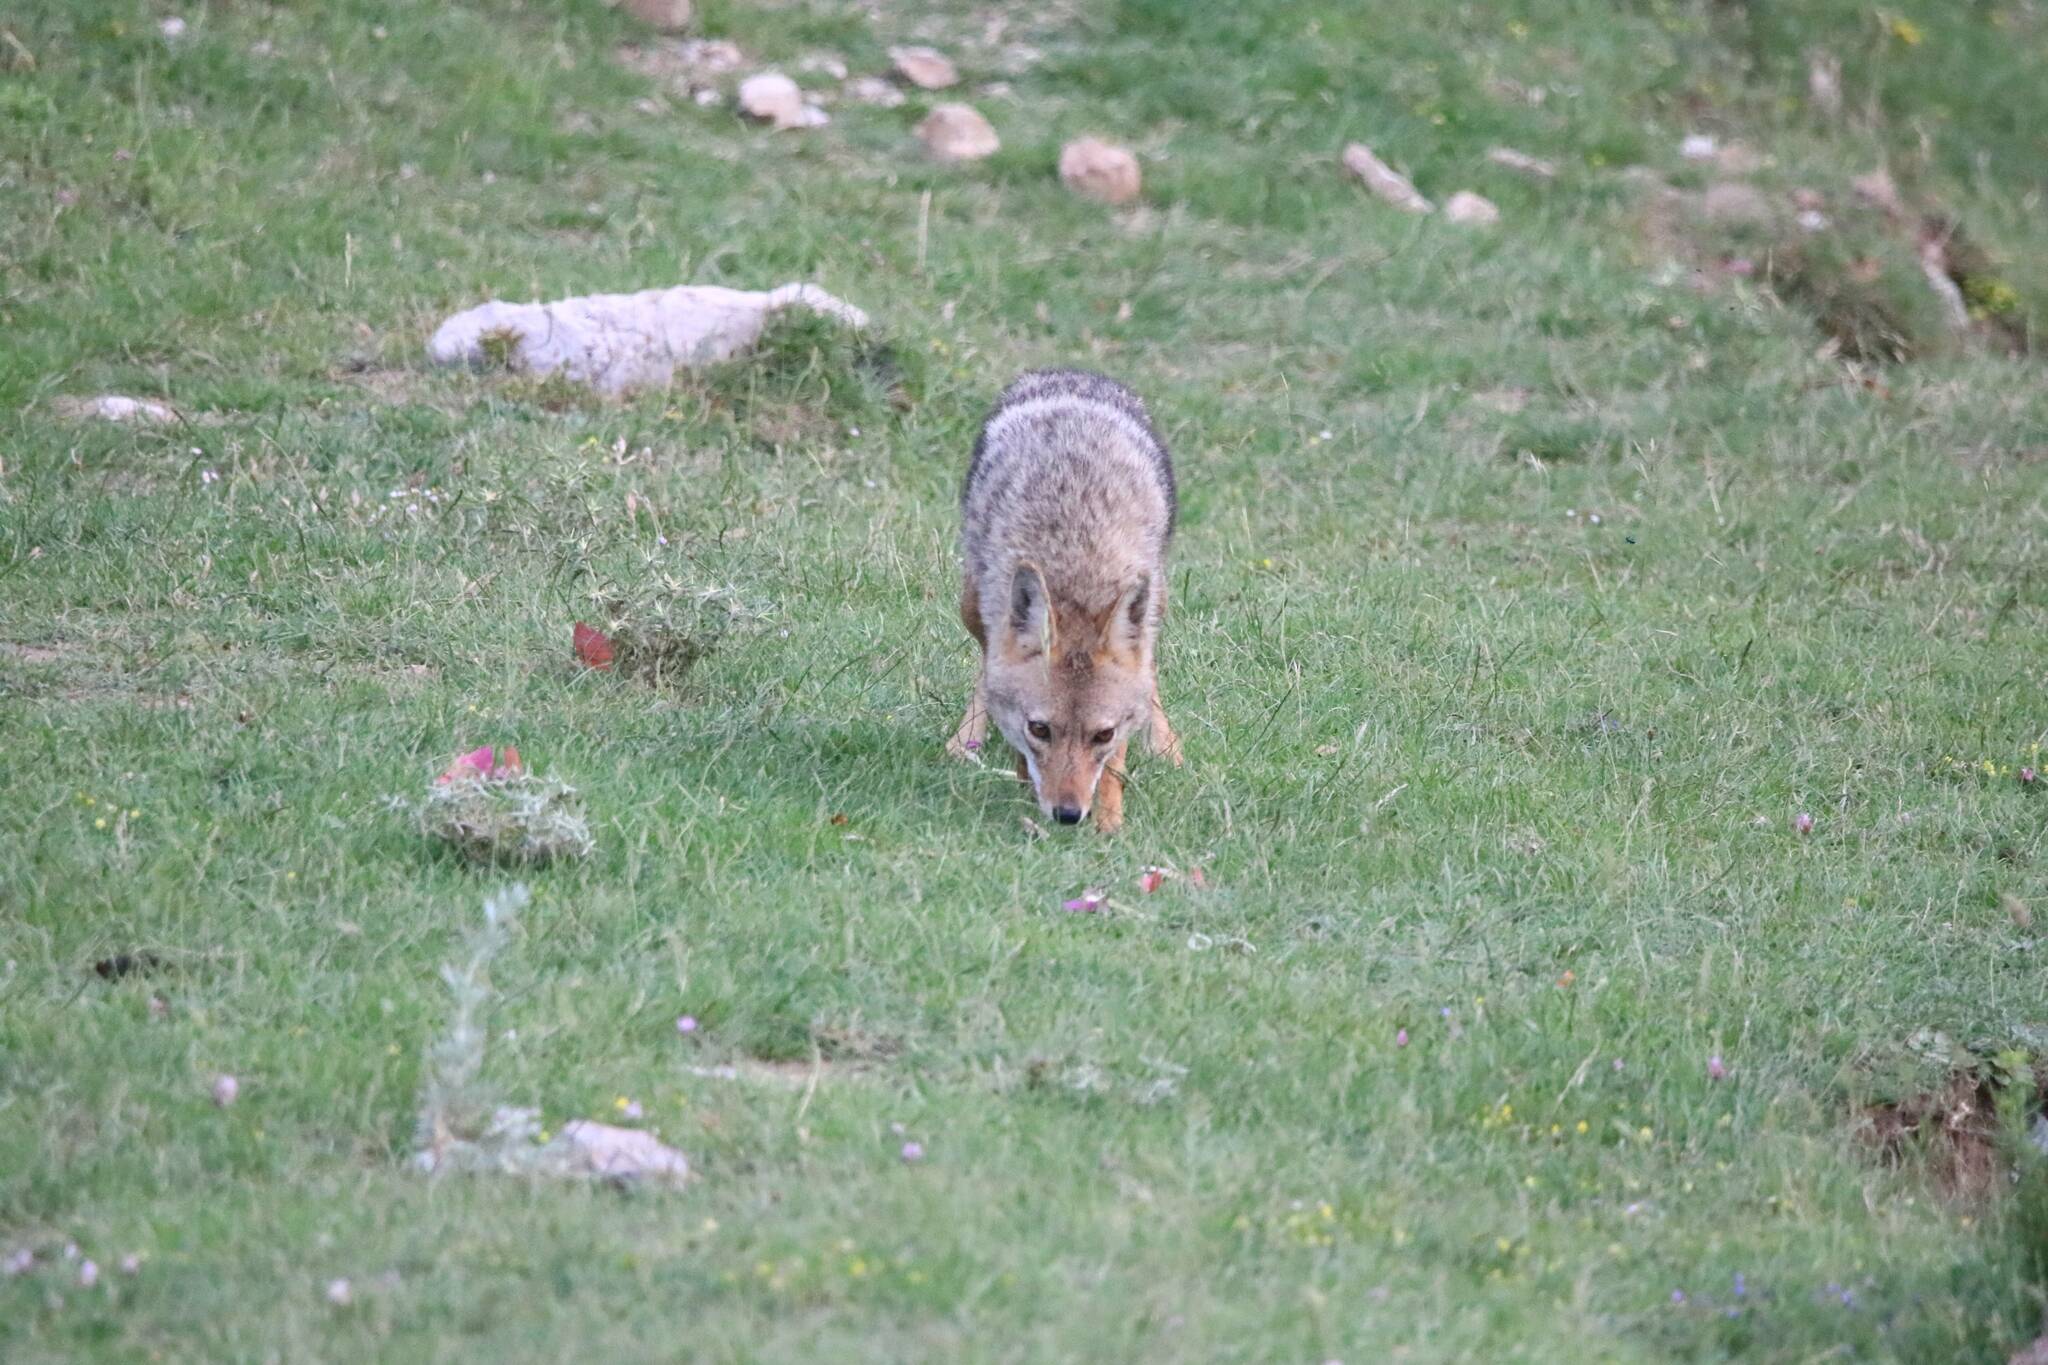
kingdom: Animalia
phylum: Chordata
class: Mammalia
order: Carnivora
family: Canidae
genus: Canis
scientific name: Canis lupaster
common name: African golden wolf
